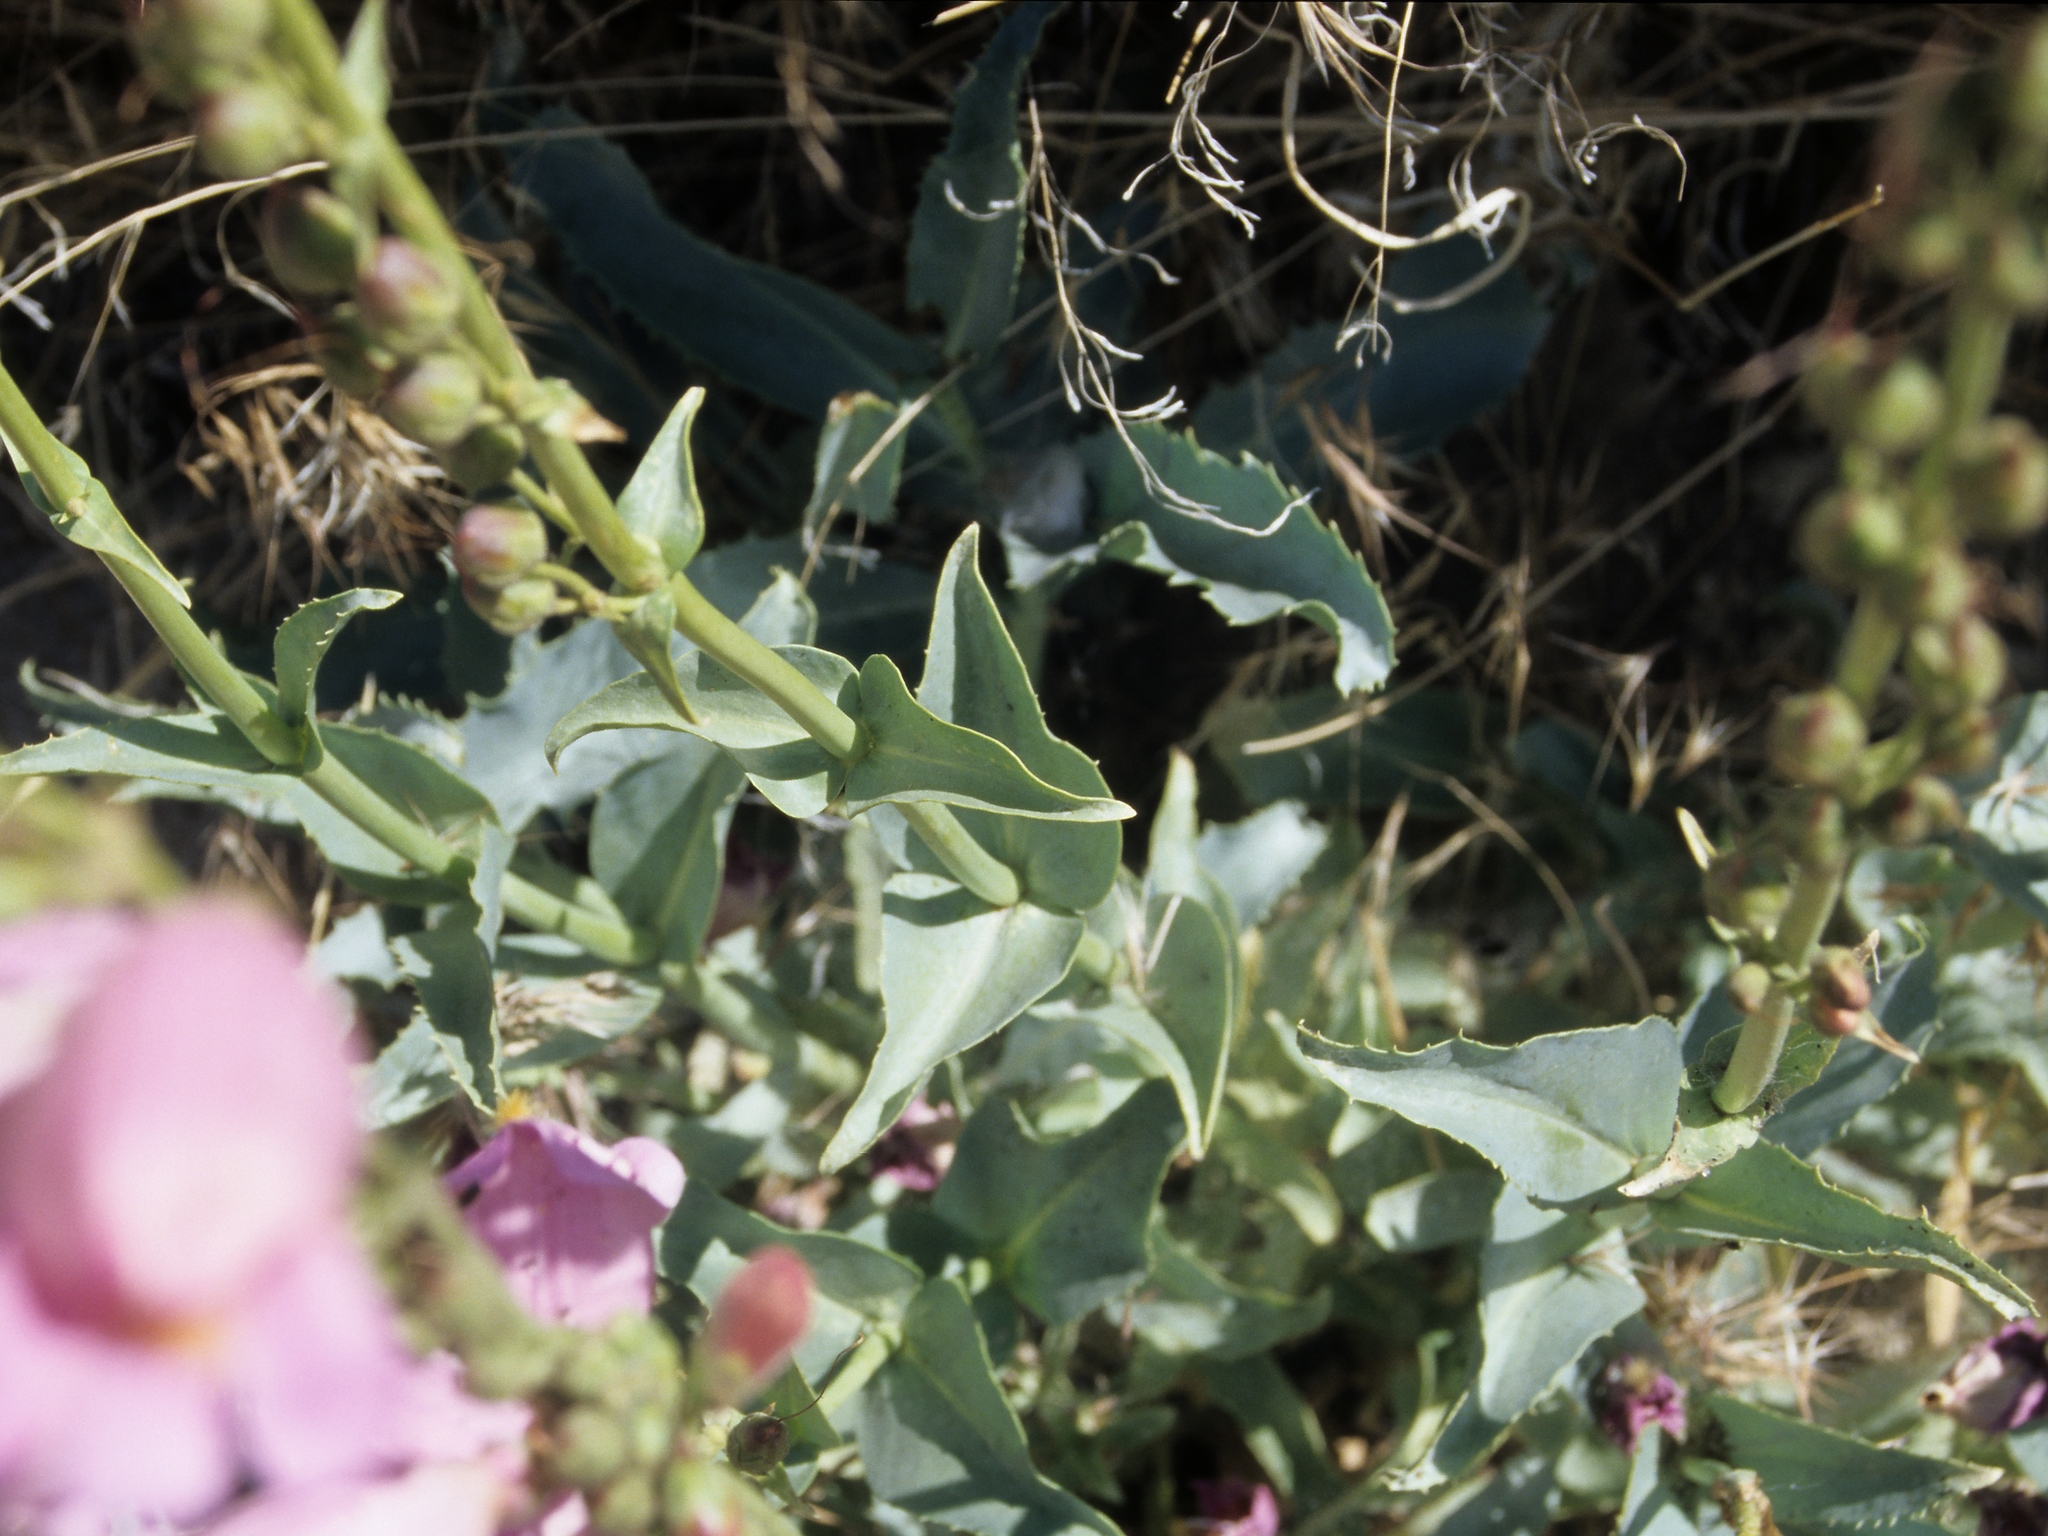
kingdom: Plantae
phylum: Tracheophyta
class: Magnoliopsida
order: Lamiales
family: Plantaginaceae
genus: Penstemon
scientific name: Penstemon palmeri
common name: Palmer penstemon
